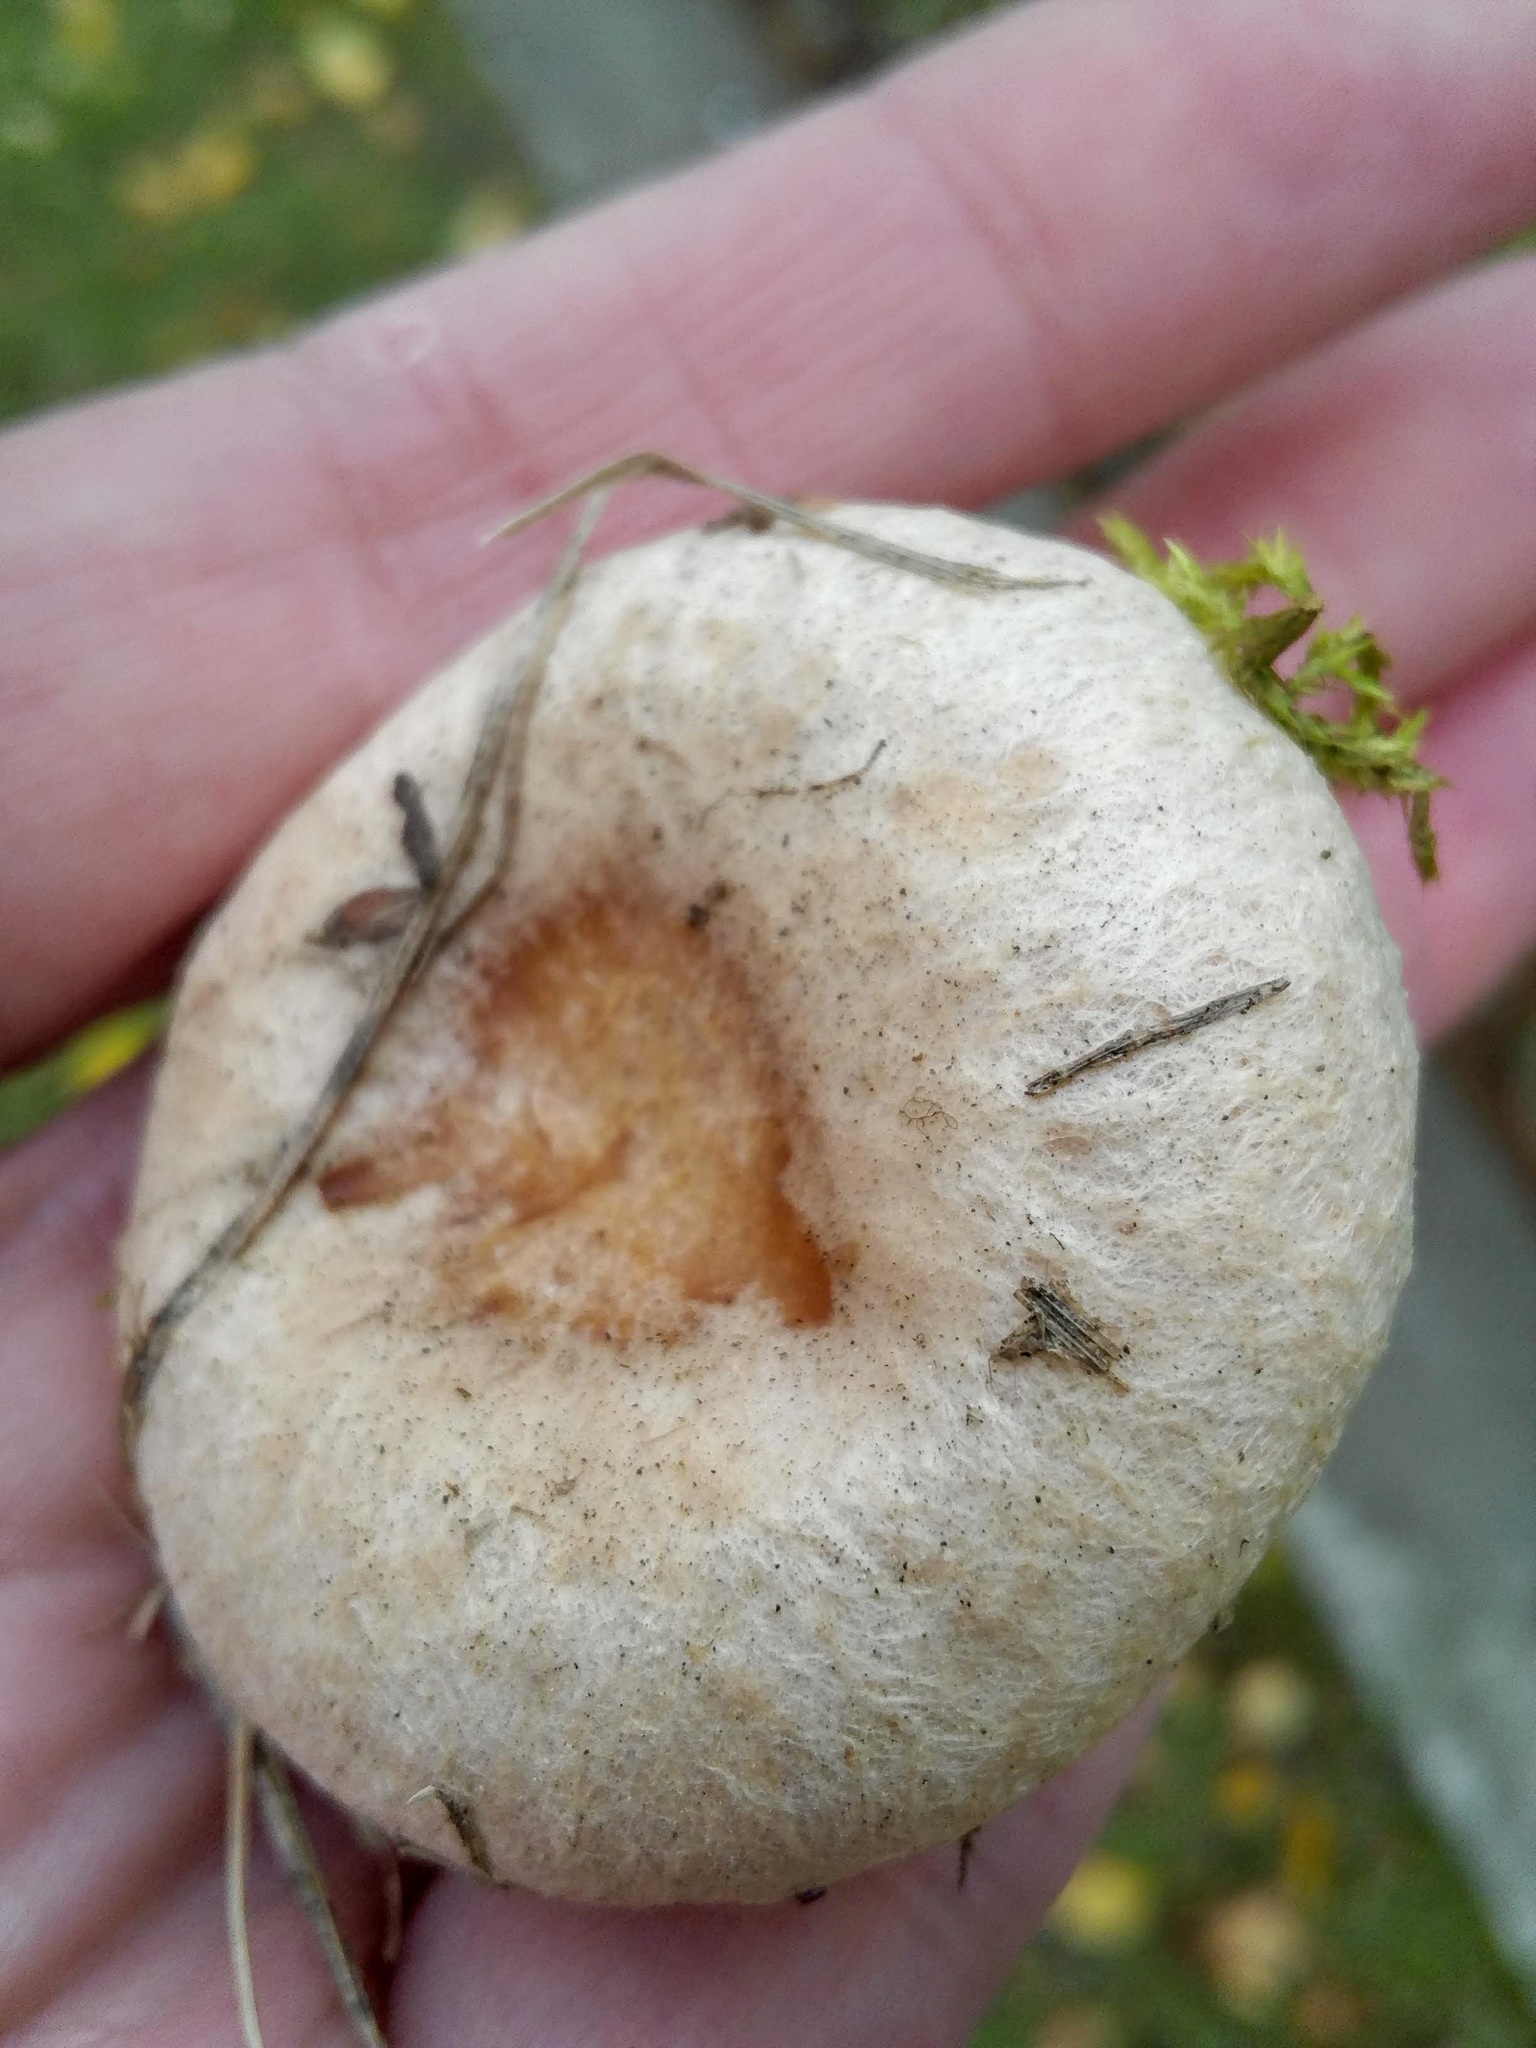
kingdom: Fungi
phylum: Basidiomycota
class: Agaricomycetes
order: Russulales
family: Russulaceae
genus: Lactarius
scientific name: Lactarius torminosus
